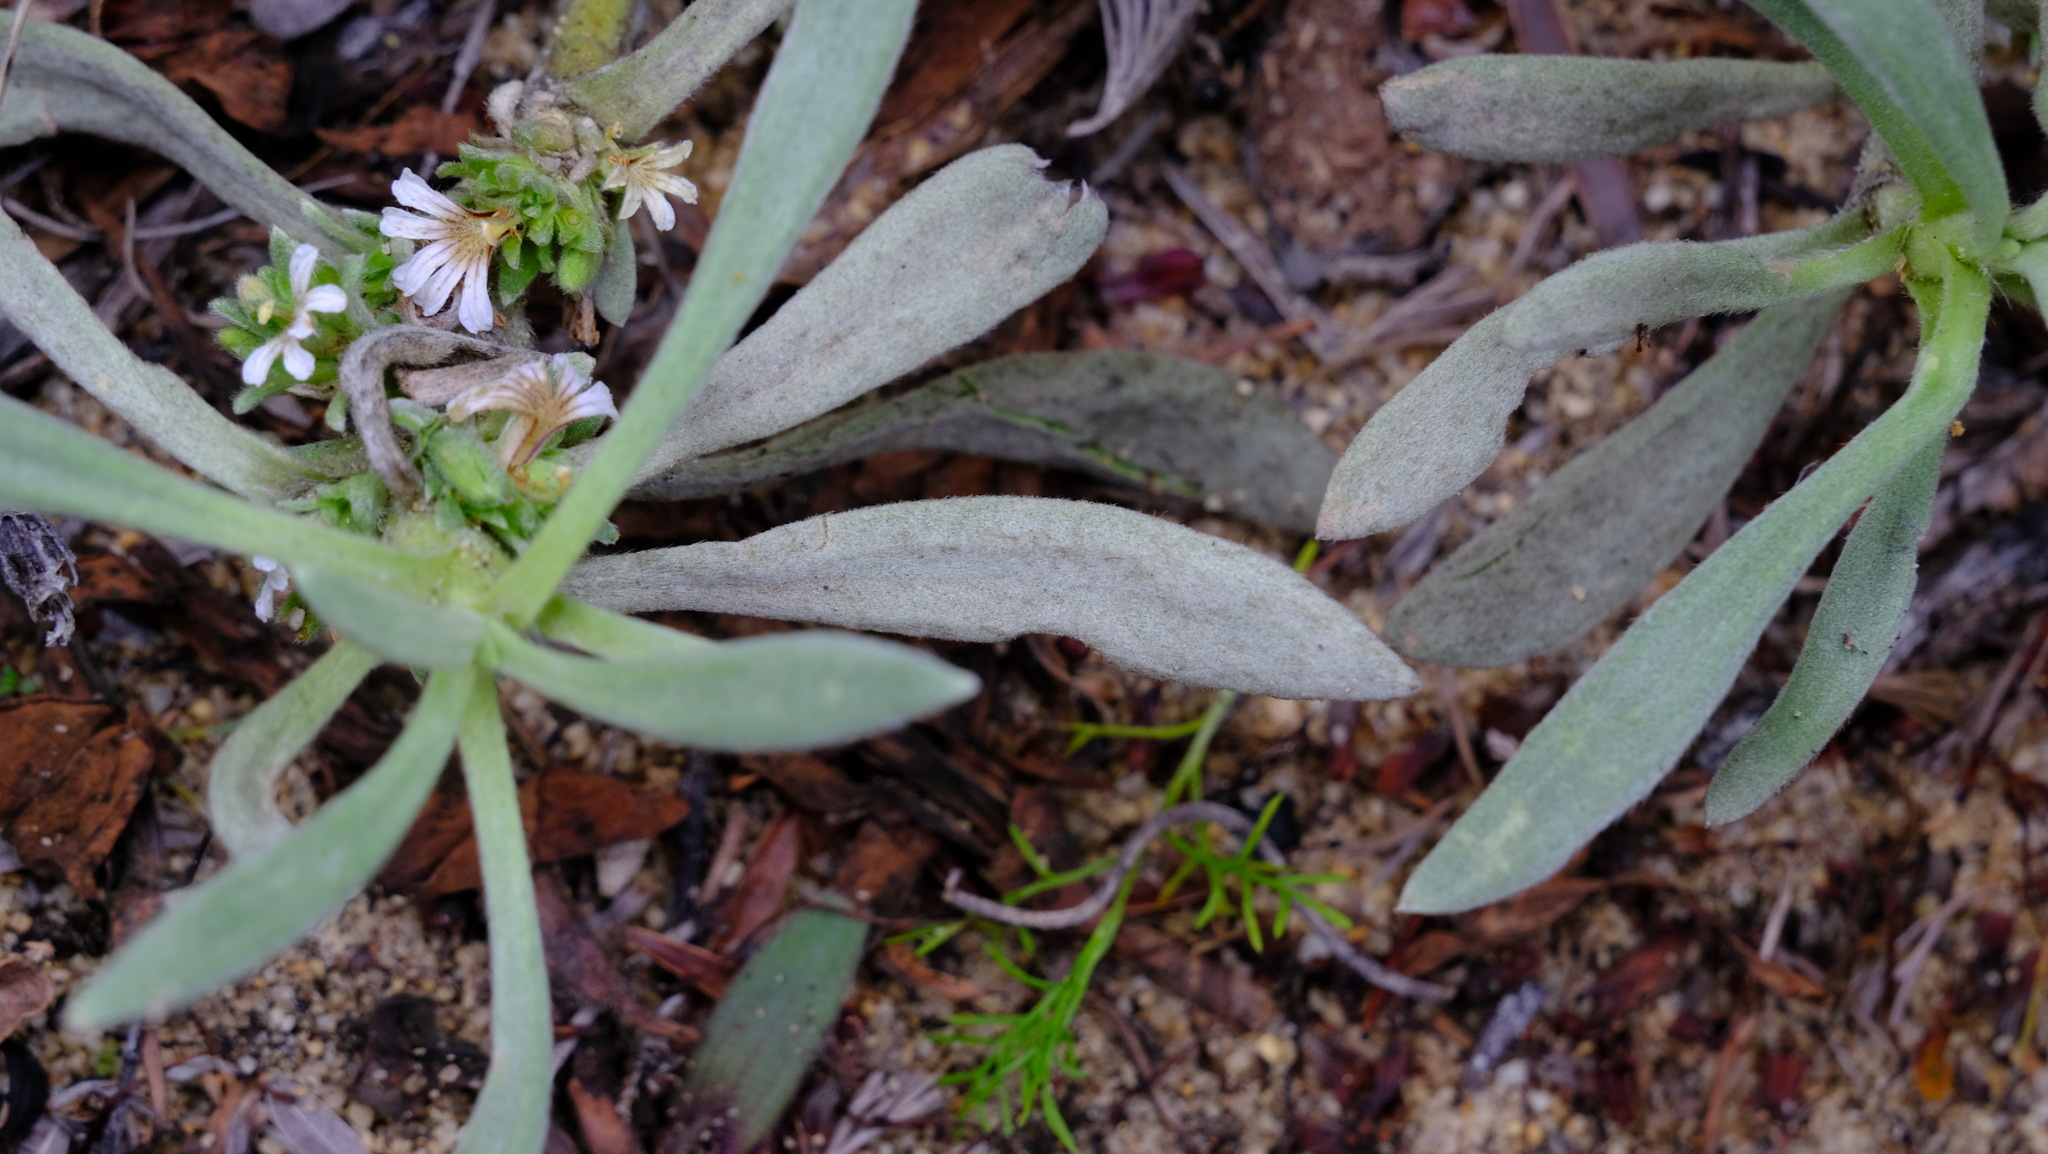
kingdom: Plantae
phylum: Tracheophyta
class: Magnoliopsida
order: Asterales
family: Goodeniaceae
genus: Scaevola
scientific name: Scaevola canescens
